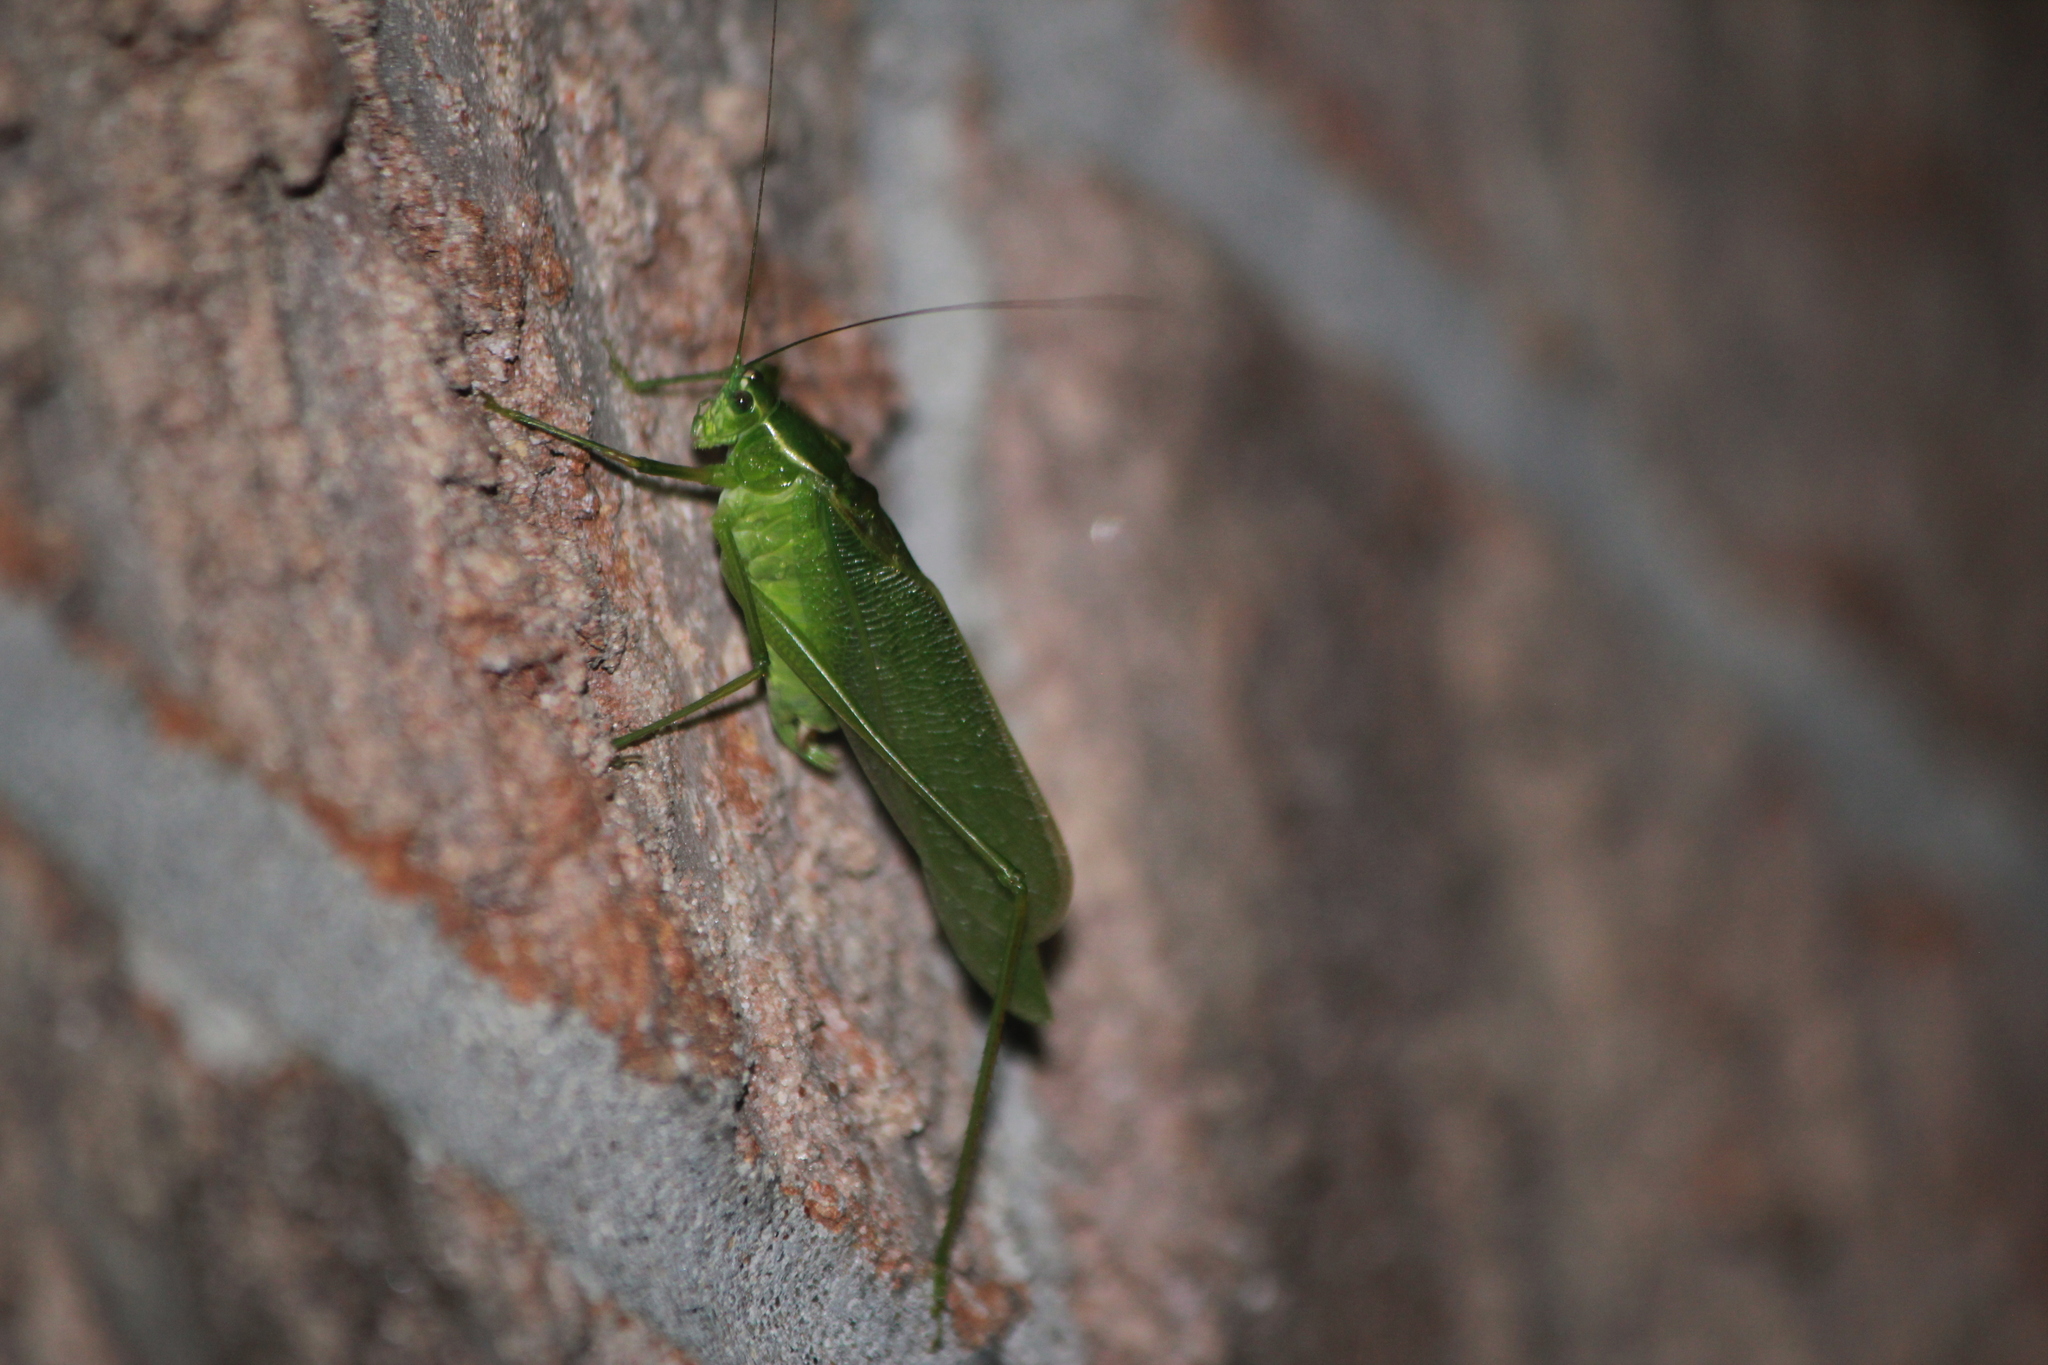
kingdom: Animalia
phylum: Arthropoda
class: Insecta
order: Orthoptera
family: Tettigoniidae
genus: Scudderia
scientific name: Scudderia septentrionalis
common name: Northern bush-katydid
